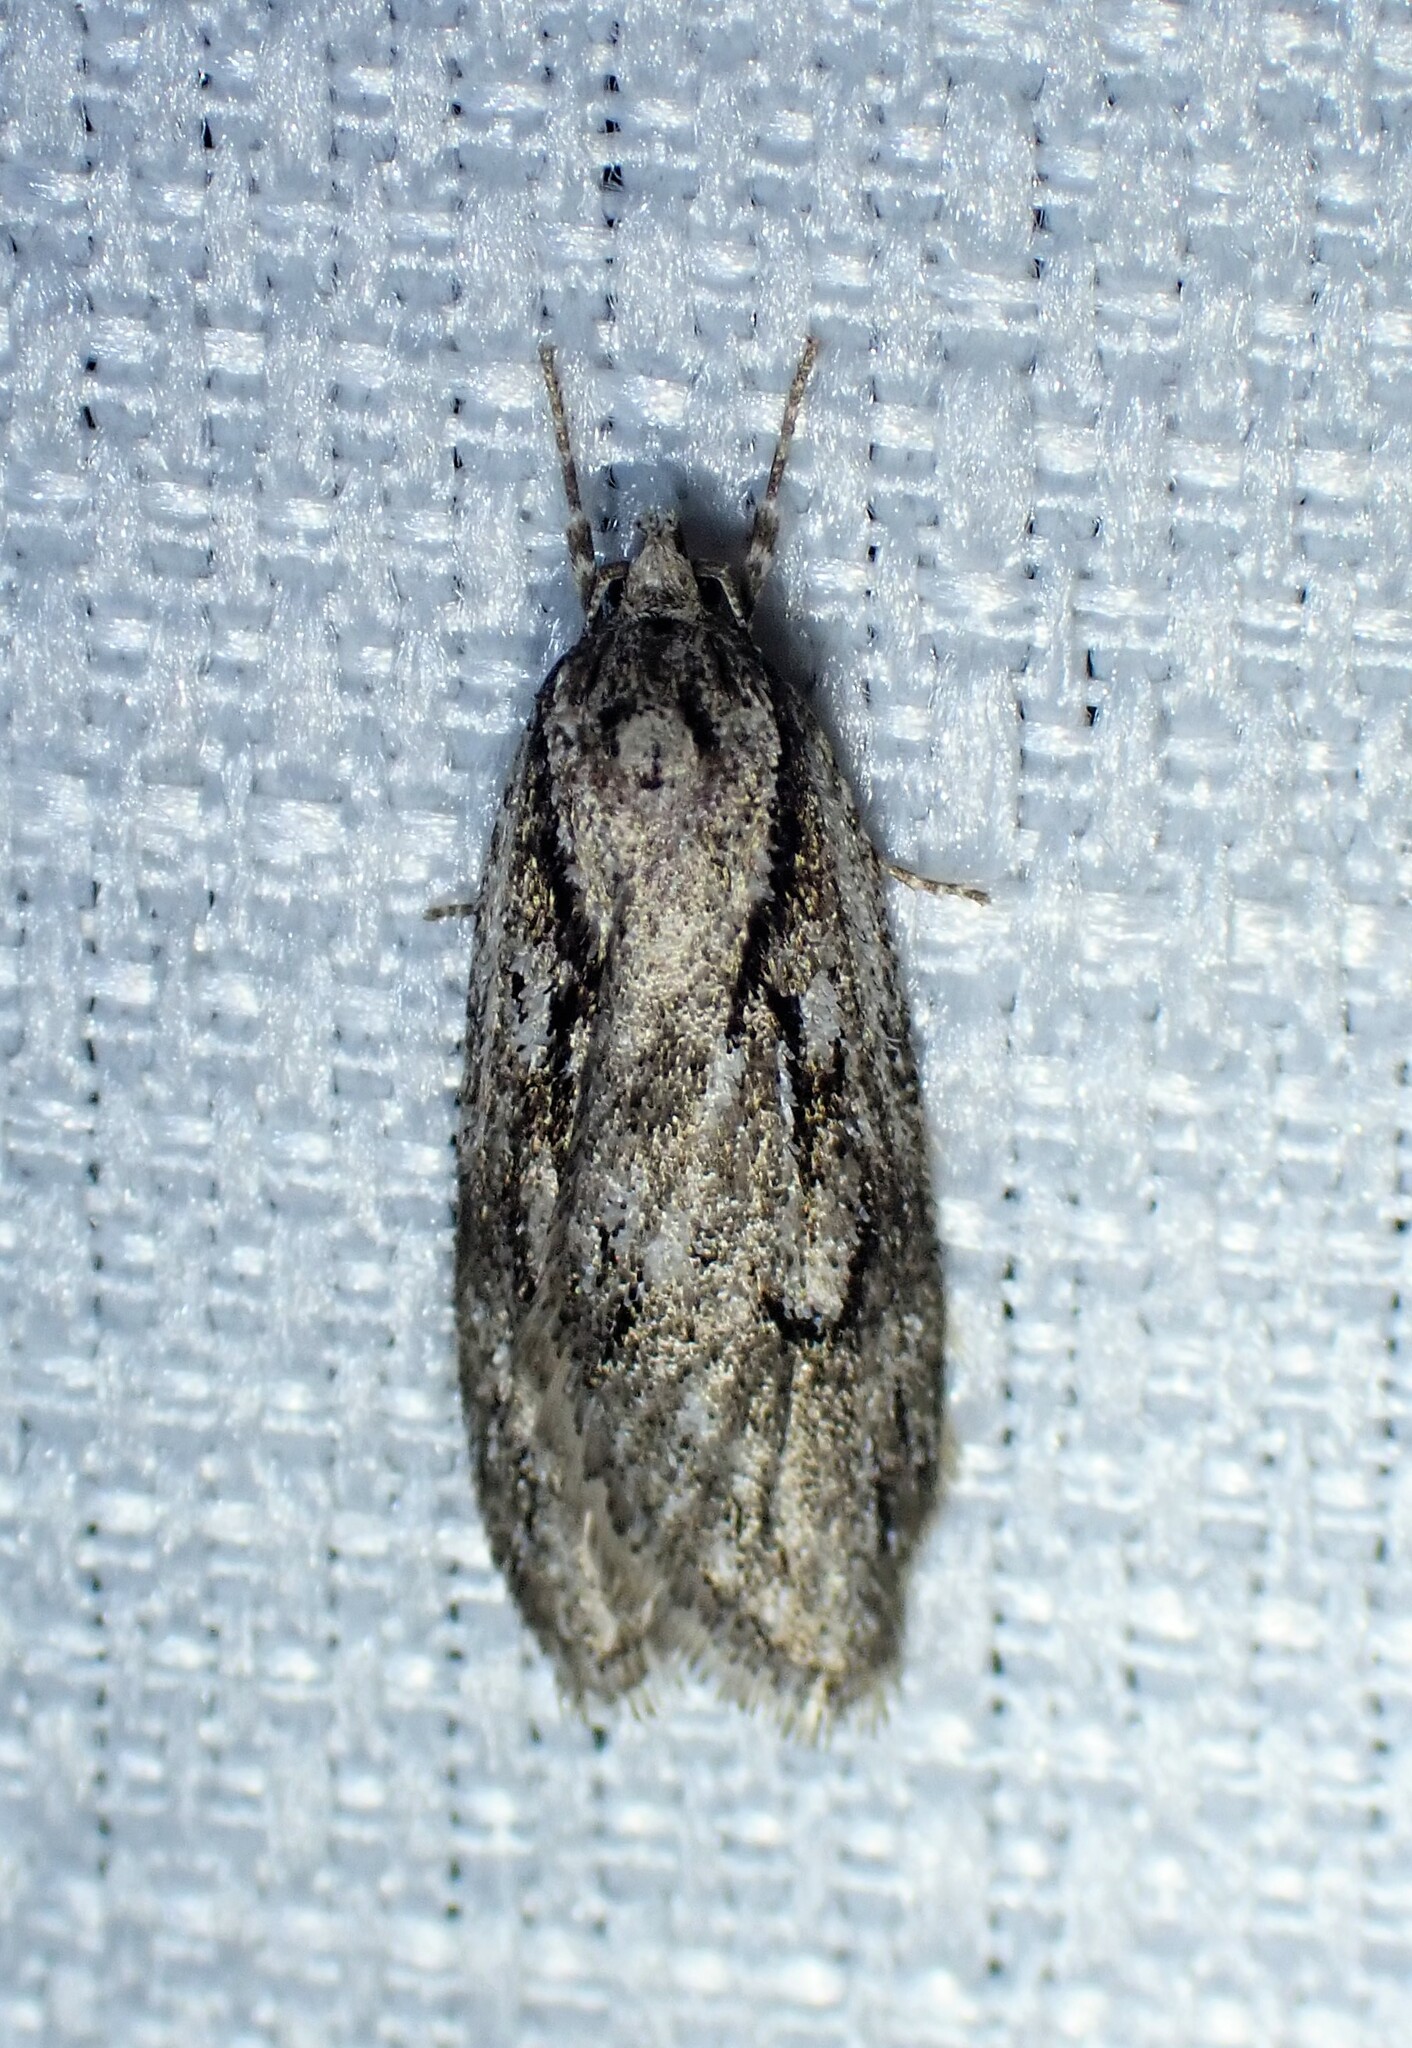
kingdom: Animalia
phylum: Arthropoda
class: Insecta
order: Lepidoptera
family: Depressariidae
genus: Semioscopis
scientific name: Semioscopis aurorella
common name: Aurora flatbody moth
